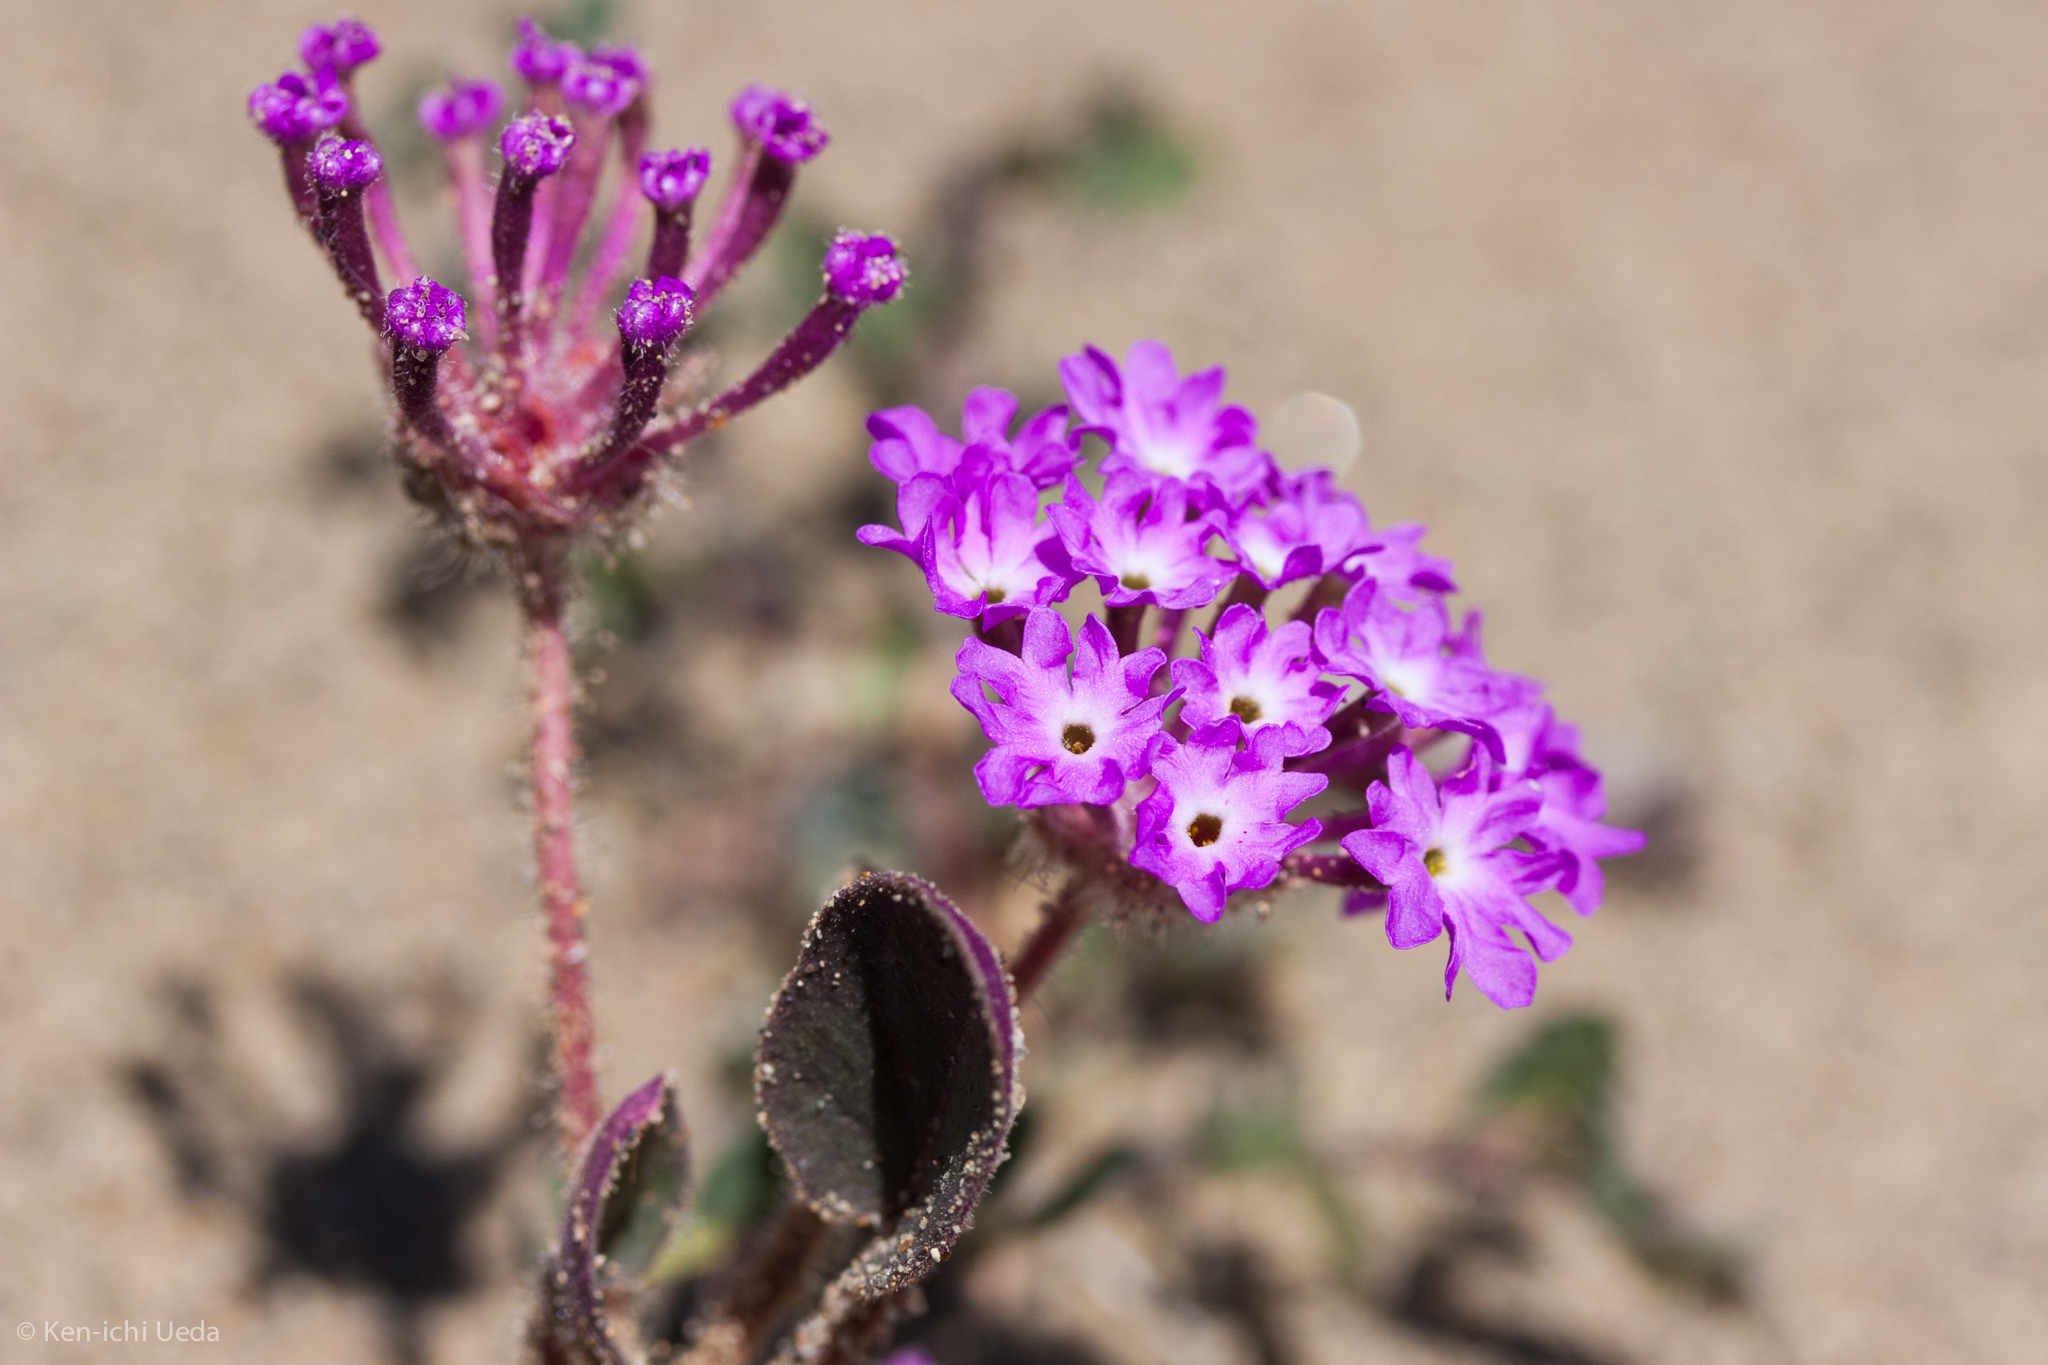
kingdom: Plantae
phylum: Tracheophyta
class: Magnoliopsida
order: Caryophyllales
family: Nyctaginaceae
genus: Abronia
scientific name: Abronia pogonantha
